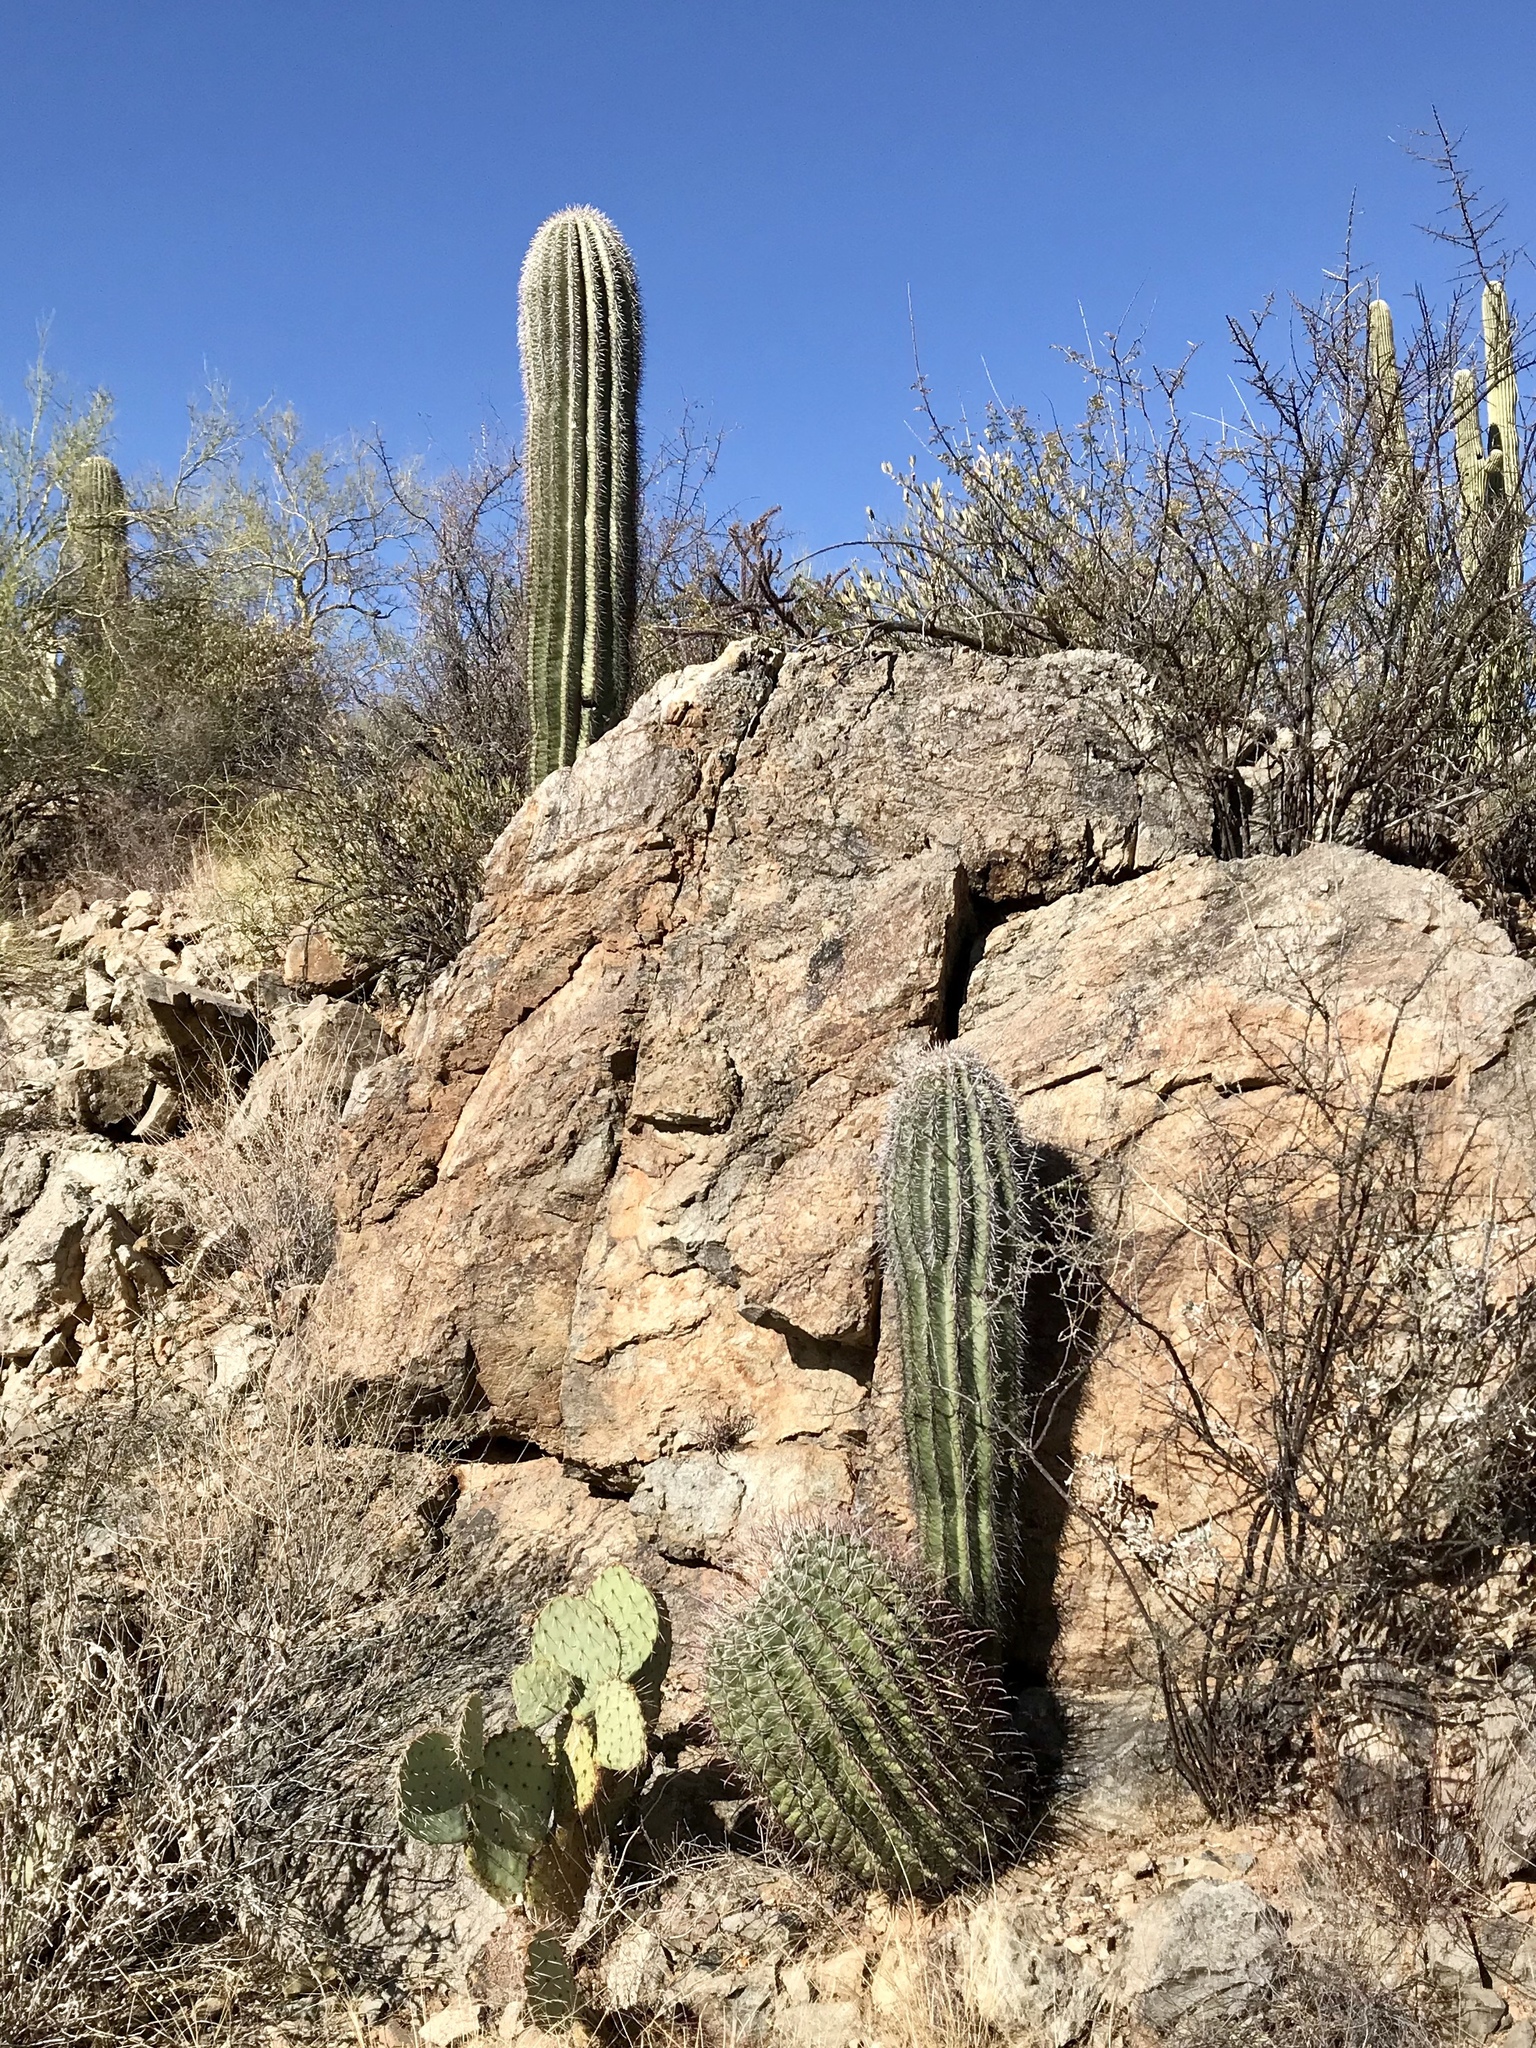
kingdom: Plantae
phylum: Tracheophyta
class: Magnoliopsida
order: Caryophyllales
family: Cactaceae
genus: Carnegiea
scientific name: Carnegiea gigantea
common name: Saguaro
